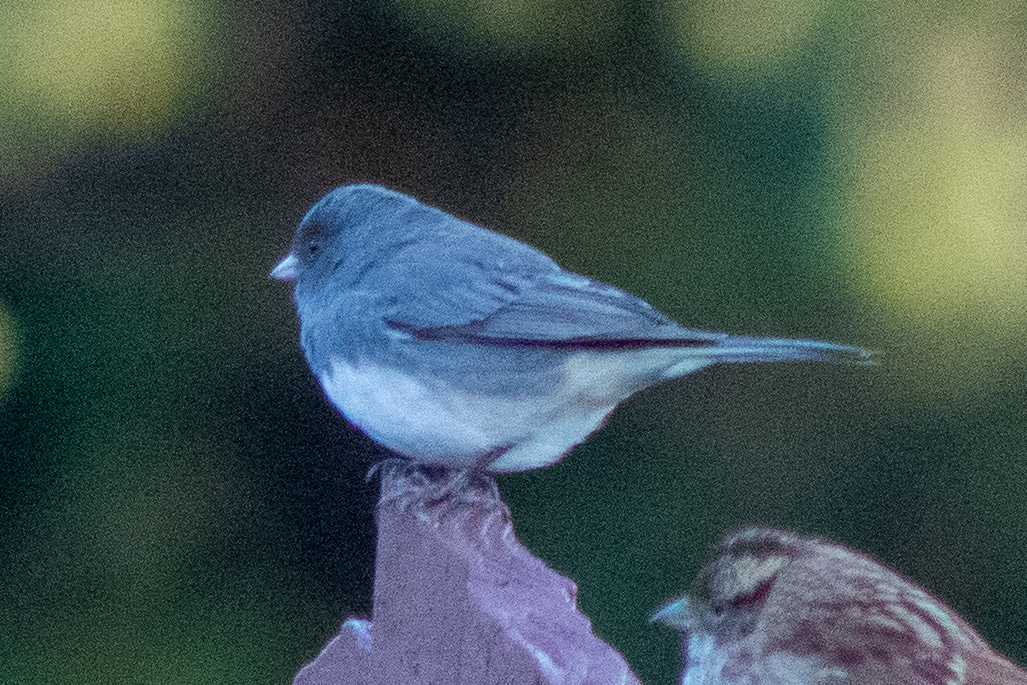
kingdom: Animalia
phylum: Chordata
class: Aves
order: Passeriformes
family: Passerellidae
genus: Junco
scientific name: Junco hyemalis
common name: Dark-eyed junco
